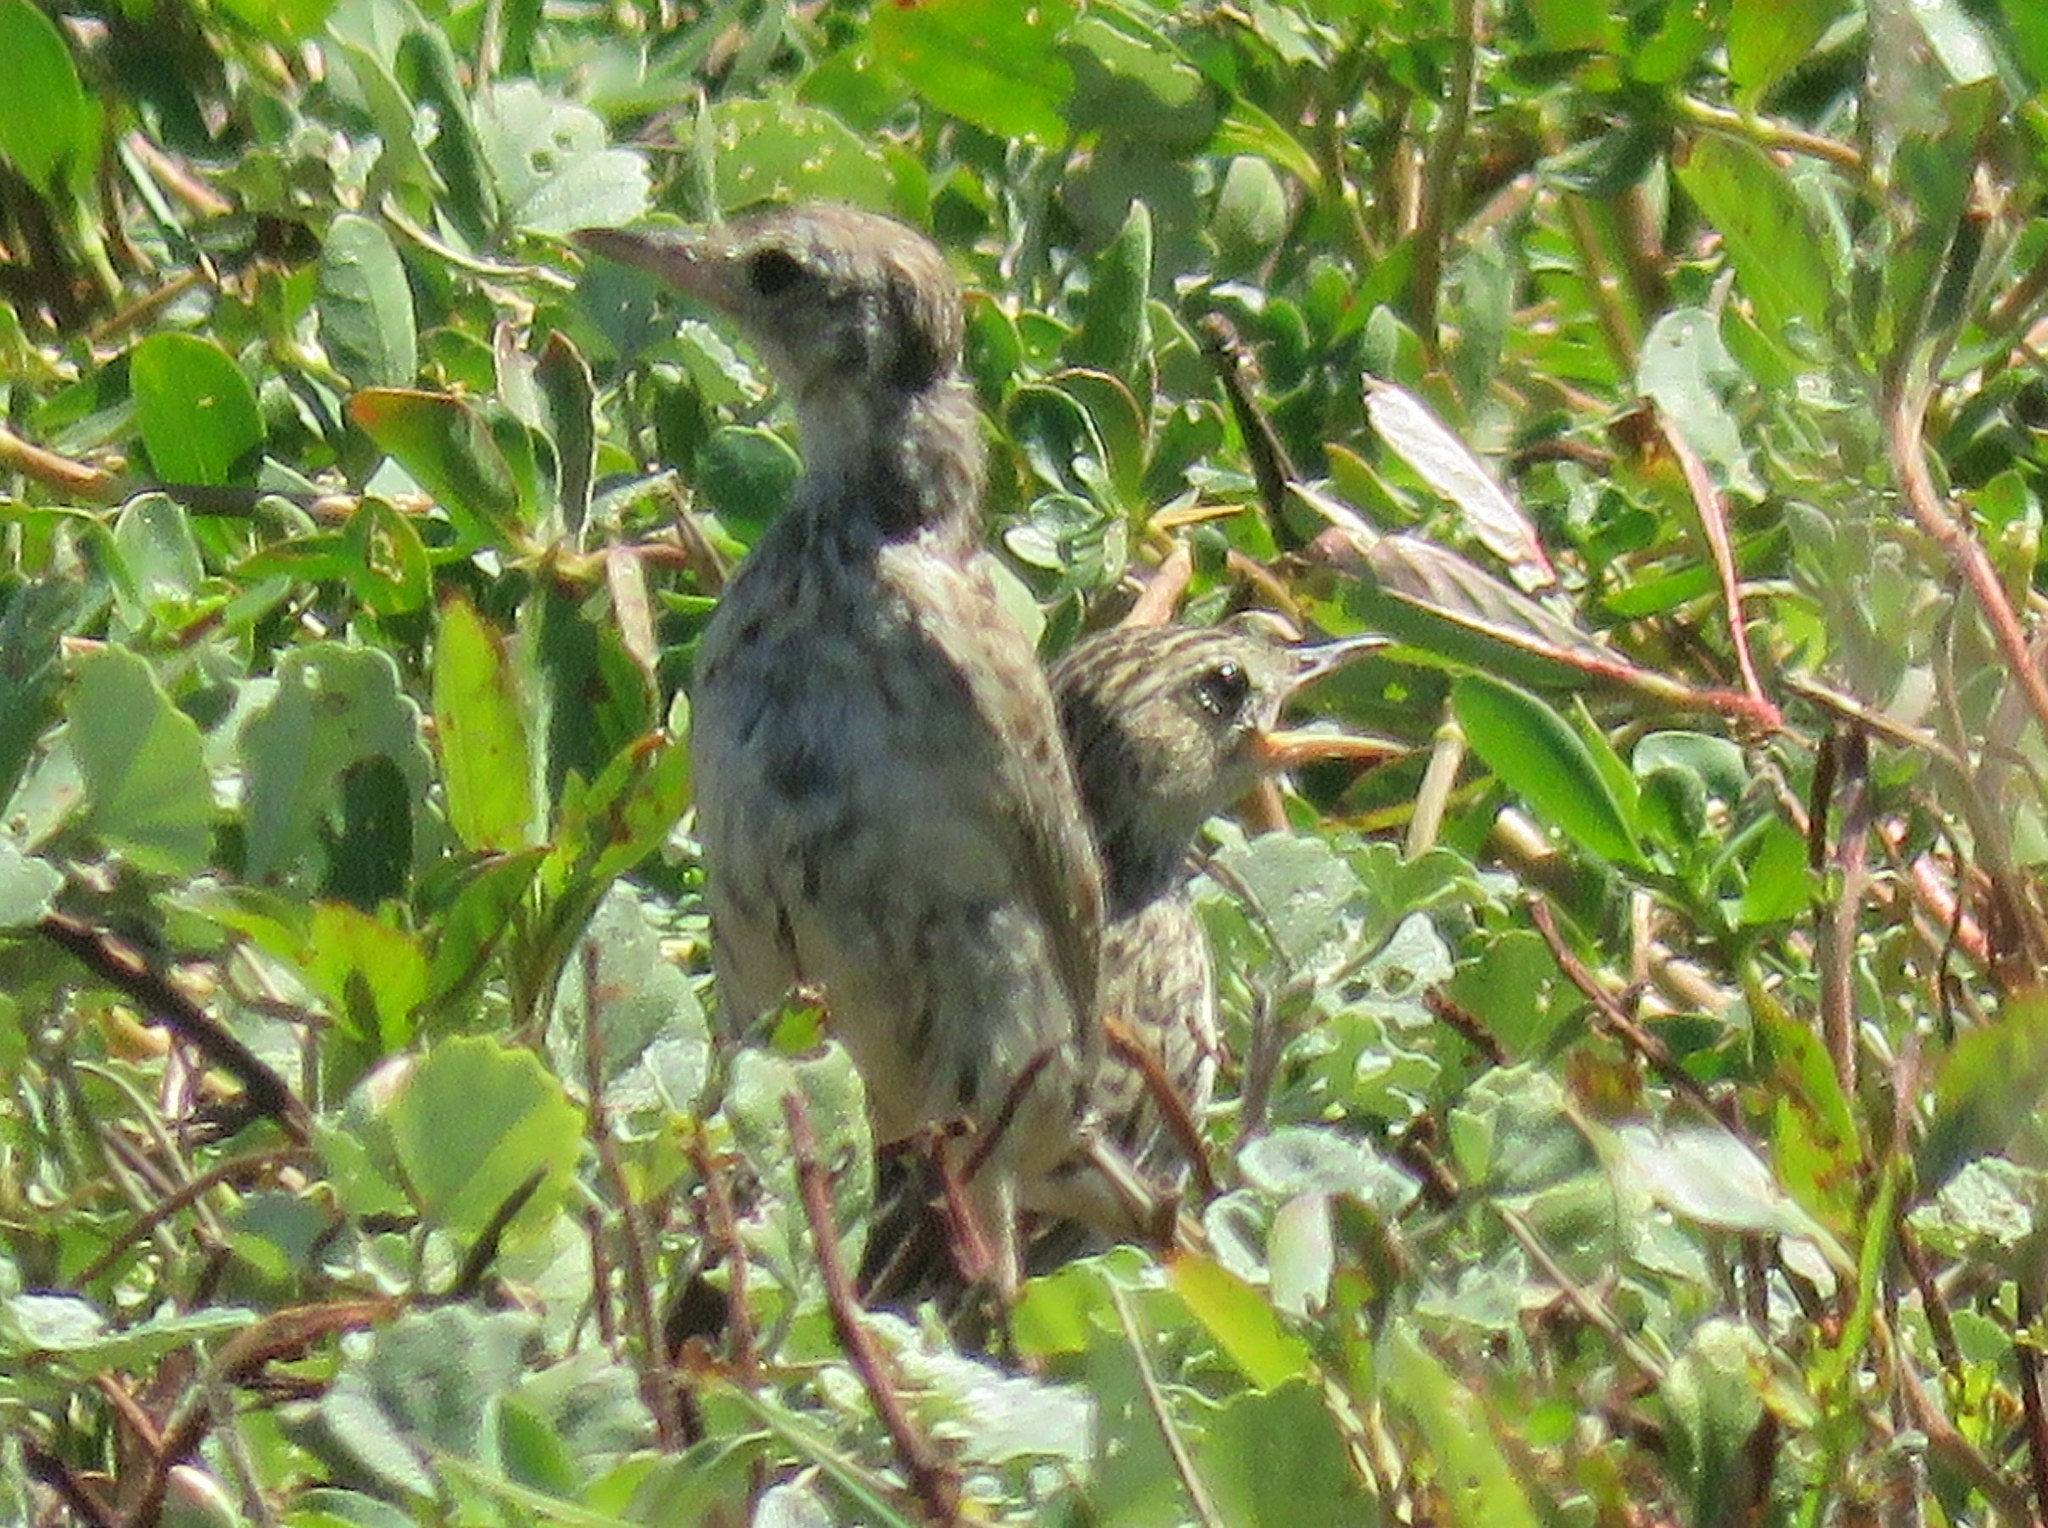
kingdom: Animalia
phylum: Chordata
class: Aves
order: Passeriformes
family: Motacillidae
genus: Anthus
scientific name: Anthus correndera
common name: Correndera pipit
